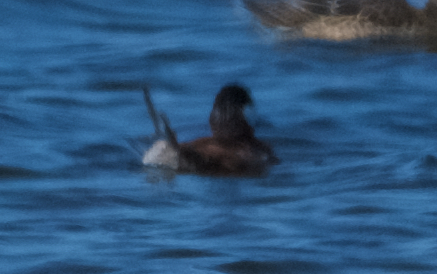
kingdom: Animalia
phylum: Chordata
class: Aves
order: Anseriformes
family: Anatidae
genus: Oxyura
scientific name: Oxyura jamaicensis
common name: Ruddy duck
